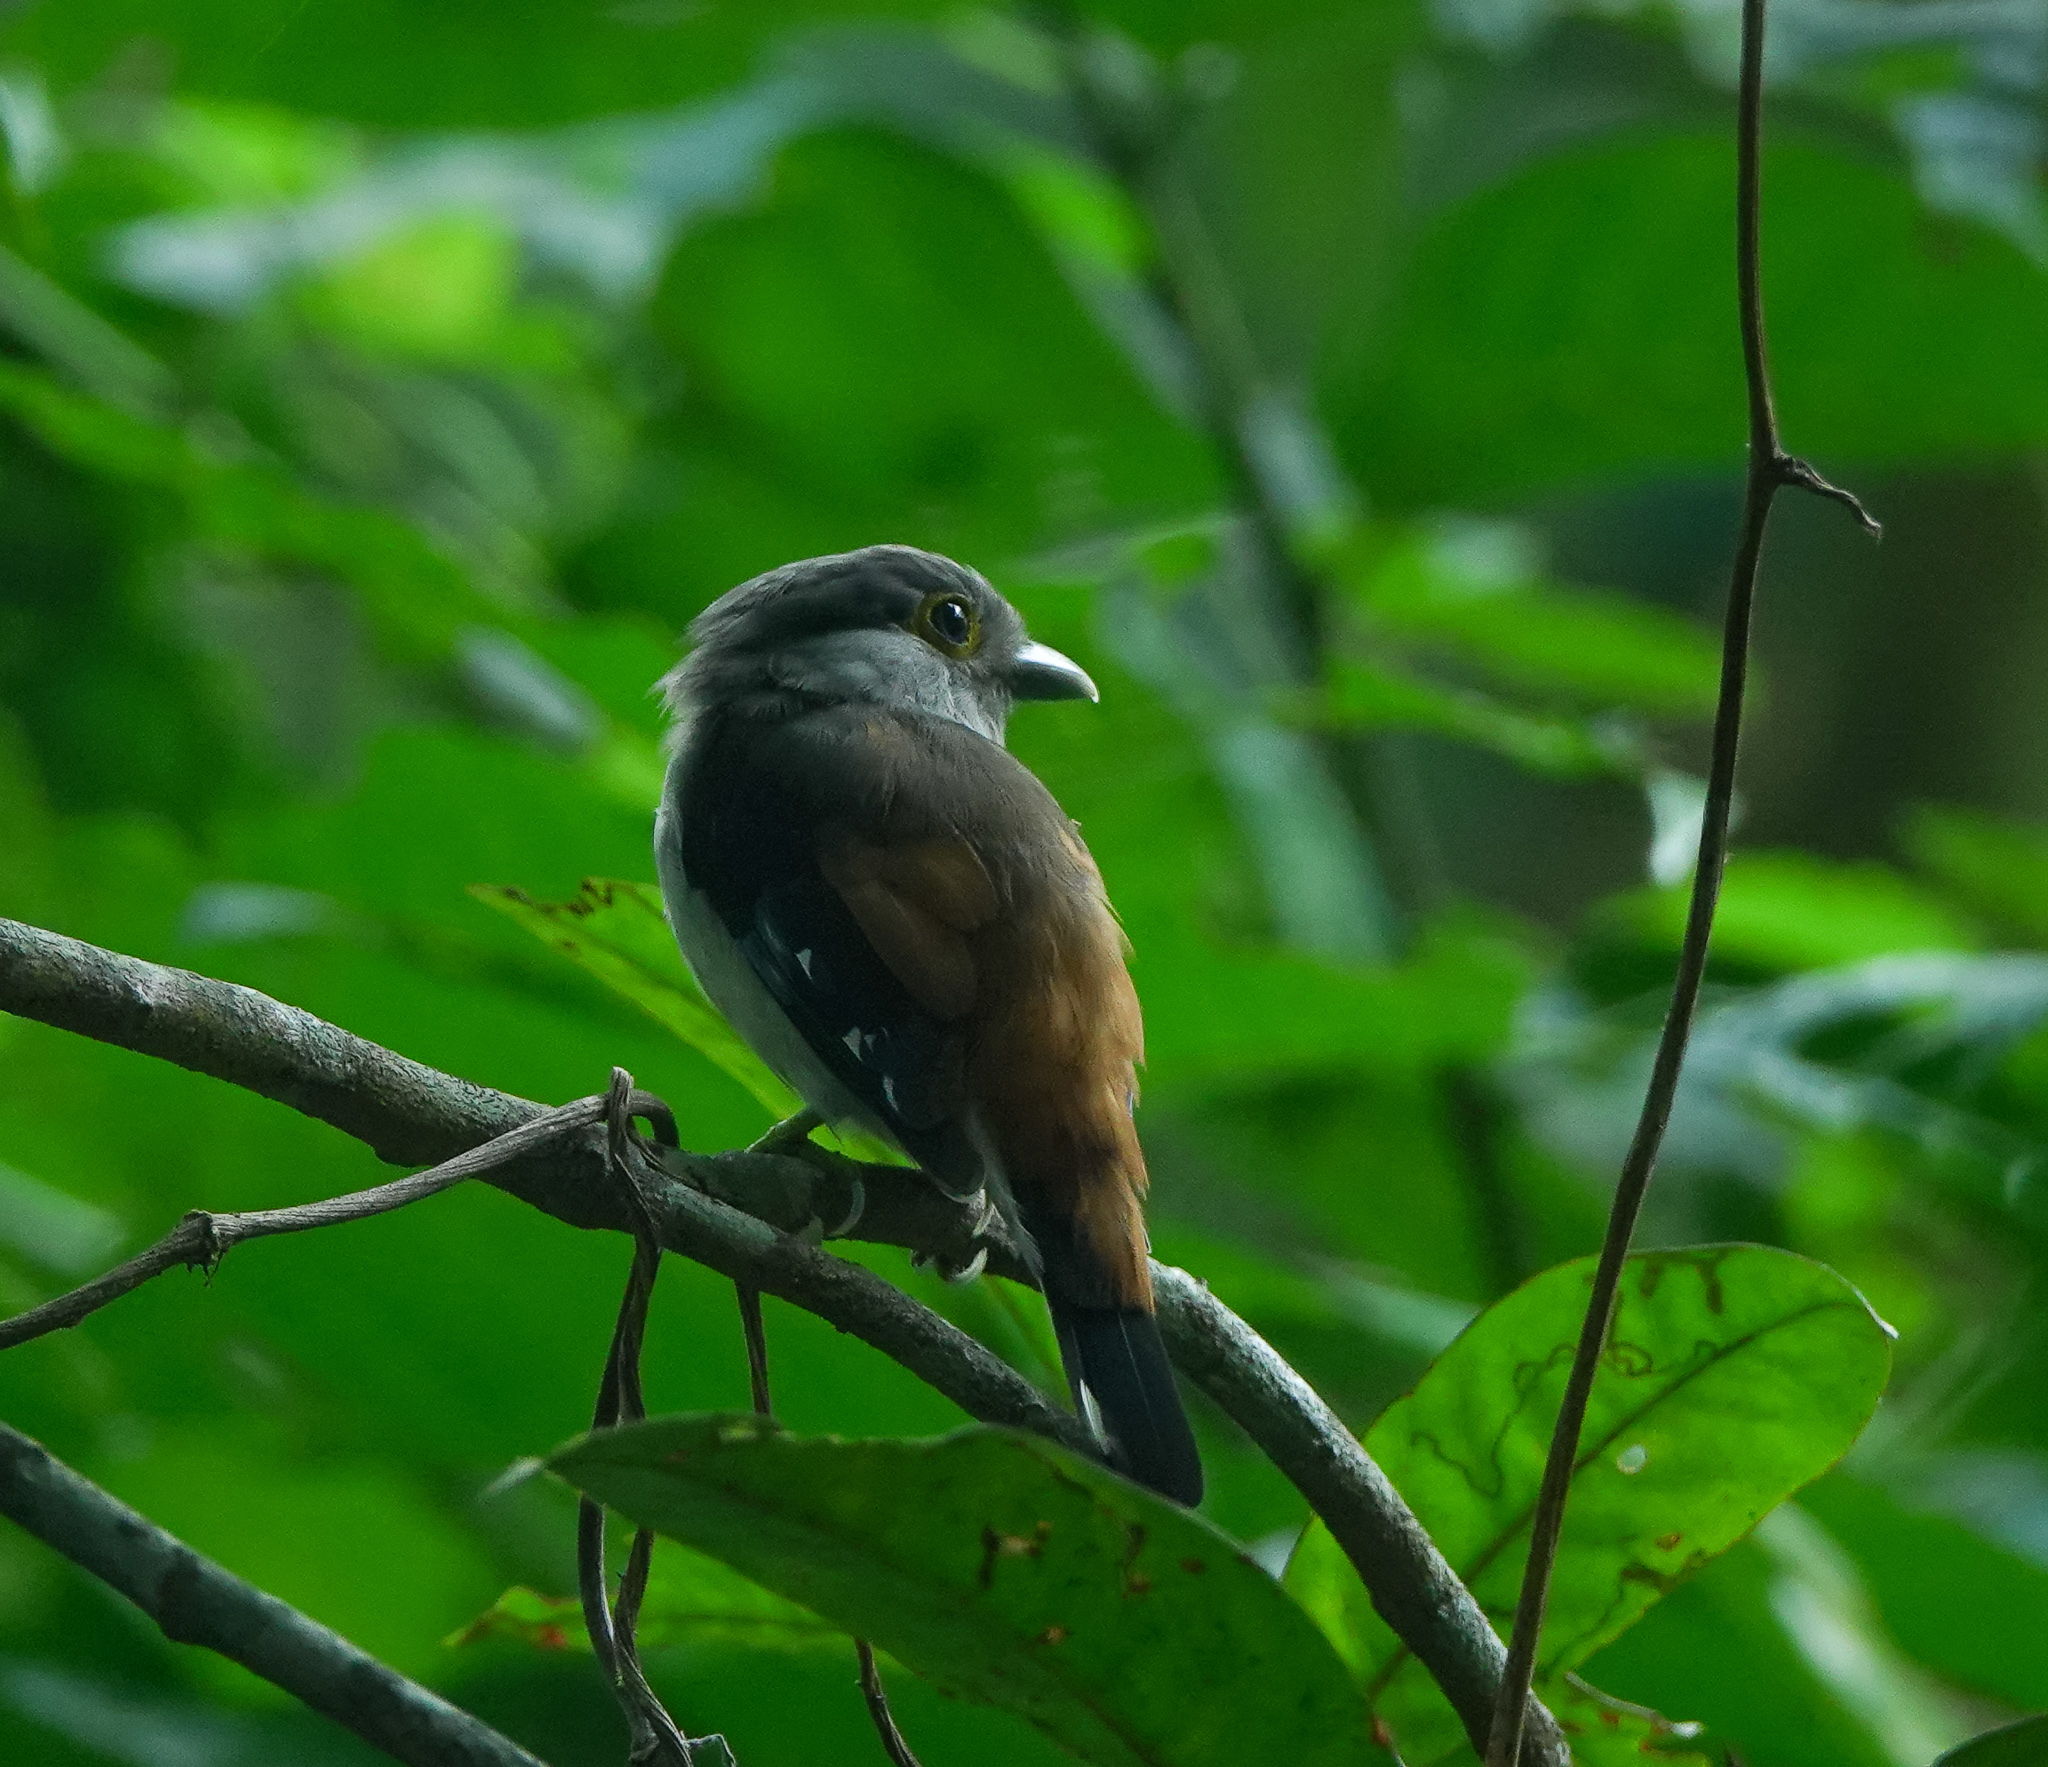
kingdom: Animalia
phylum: Chordata
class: Aves
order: Passeriformes
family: Eurylaimidae
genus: Serilophus
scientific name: Serilophus lunatus
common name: Silver-breasted broadbill
